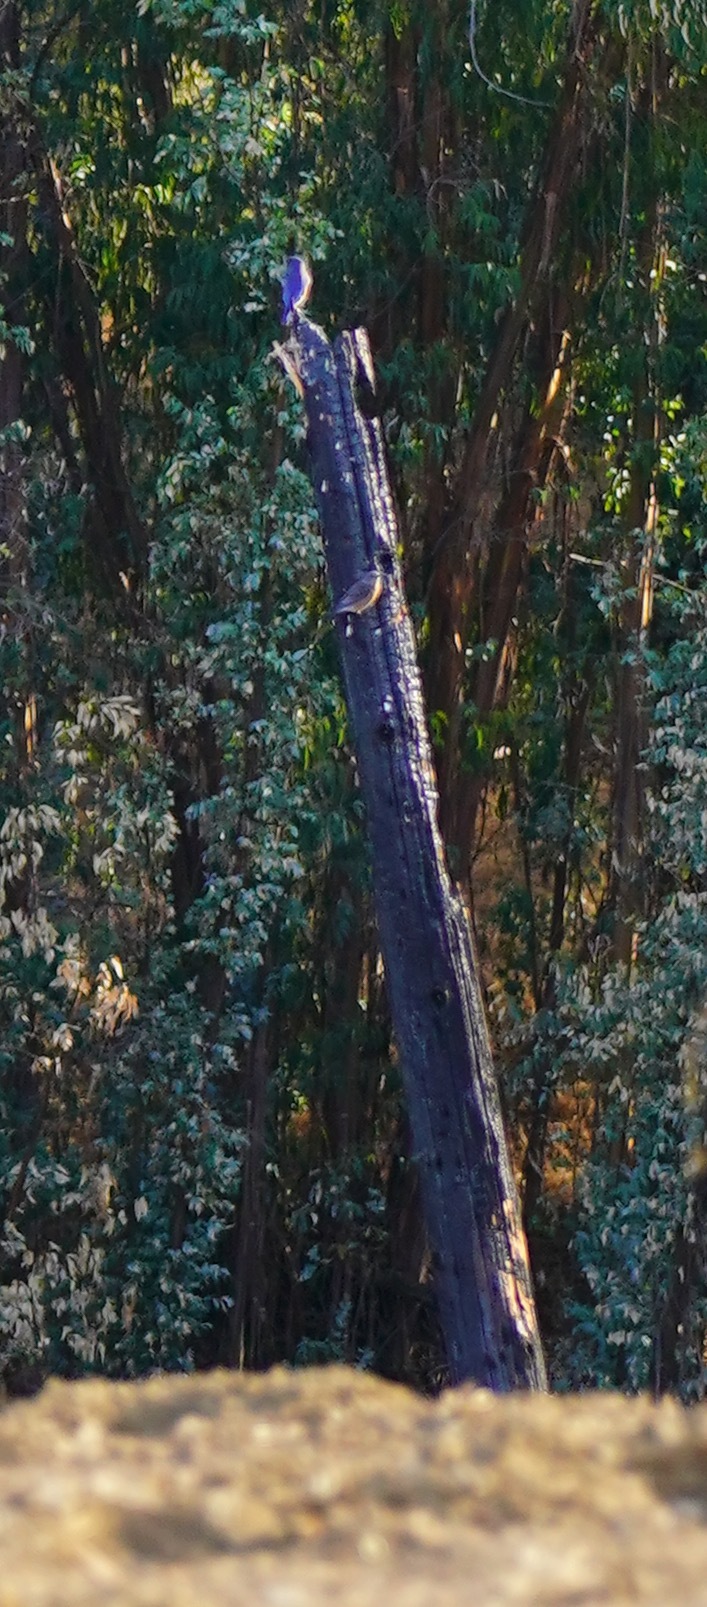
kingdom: Animalia
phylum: Chordata
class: Aves
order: Passeriformes
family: Turdidae
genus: Sialia
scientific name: Sialia mexicana
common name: Western bluebird
